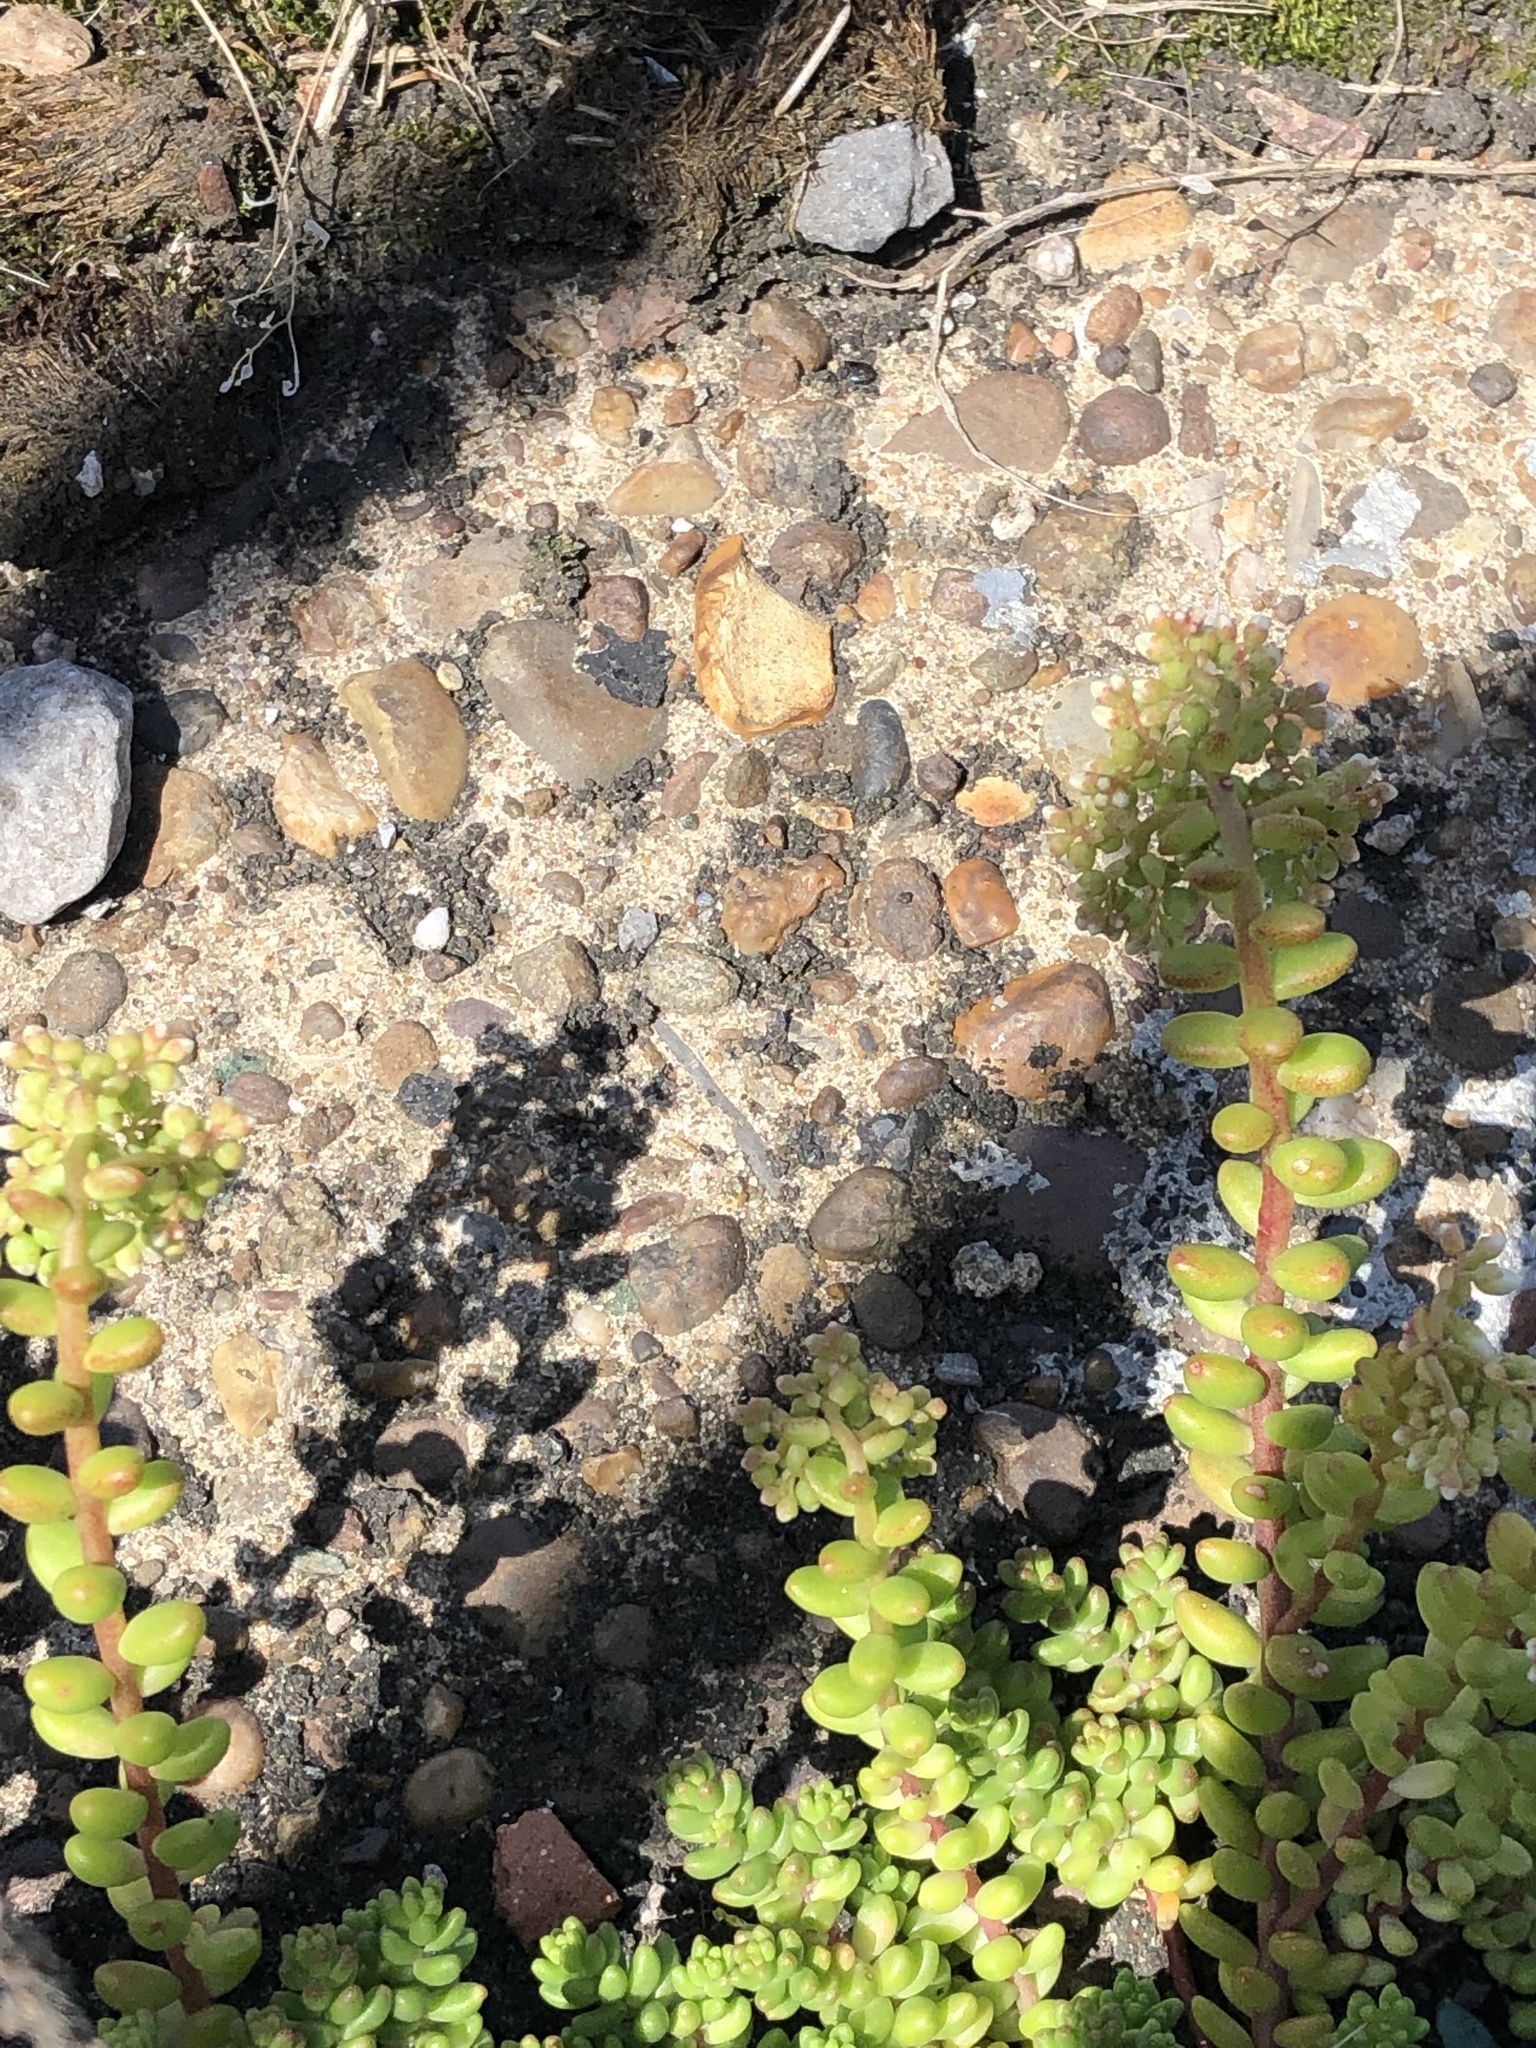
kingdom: Plantae
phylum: Tracheophyta
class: Magnoliopsida
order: Saxifragales
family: Crassulaceae
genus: Sedum
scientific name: Sedum album
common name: White stonecrop
